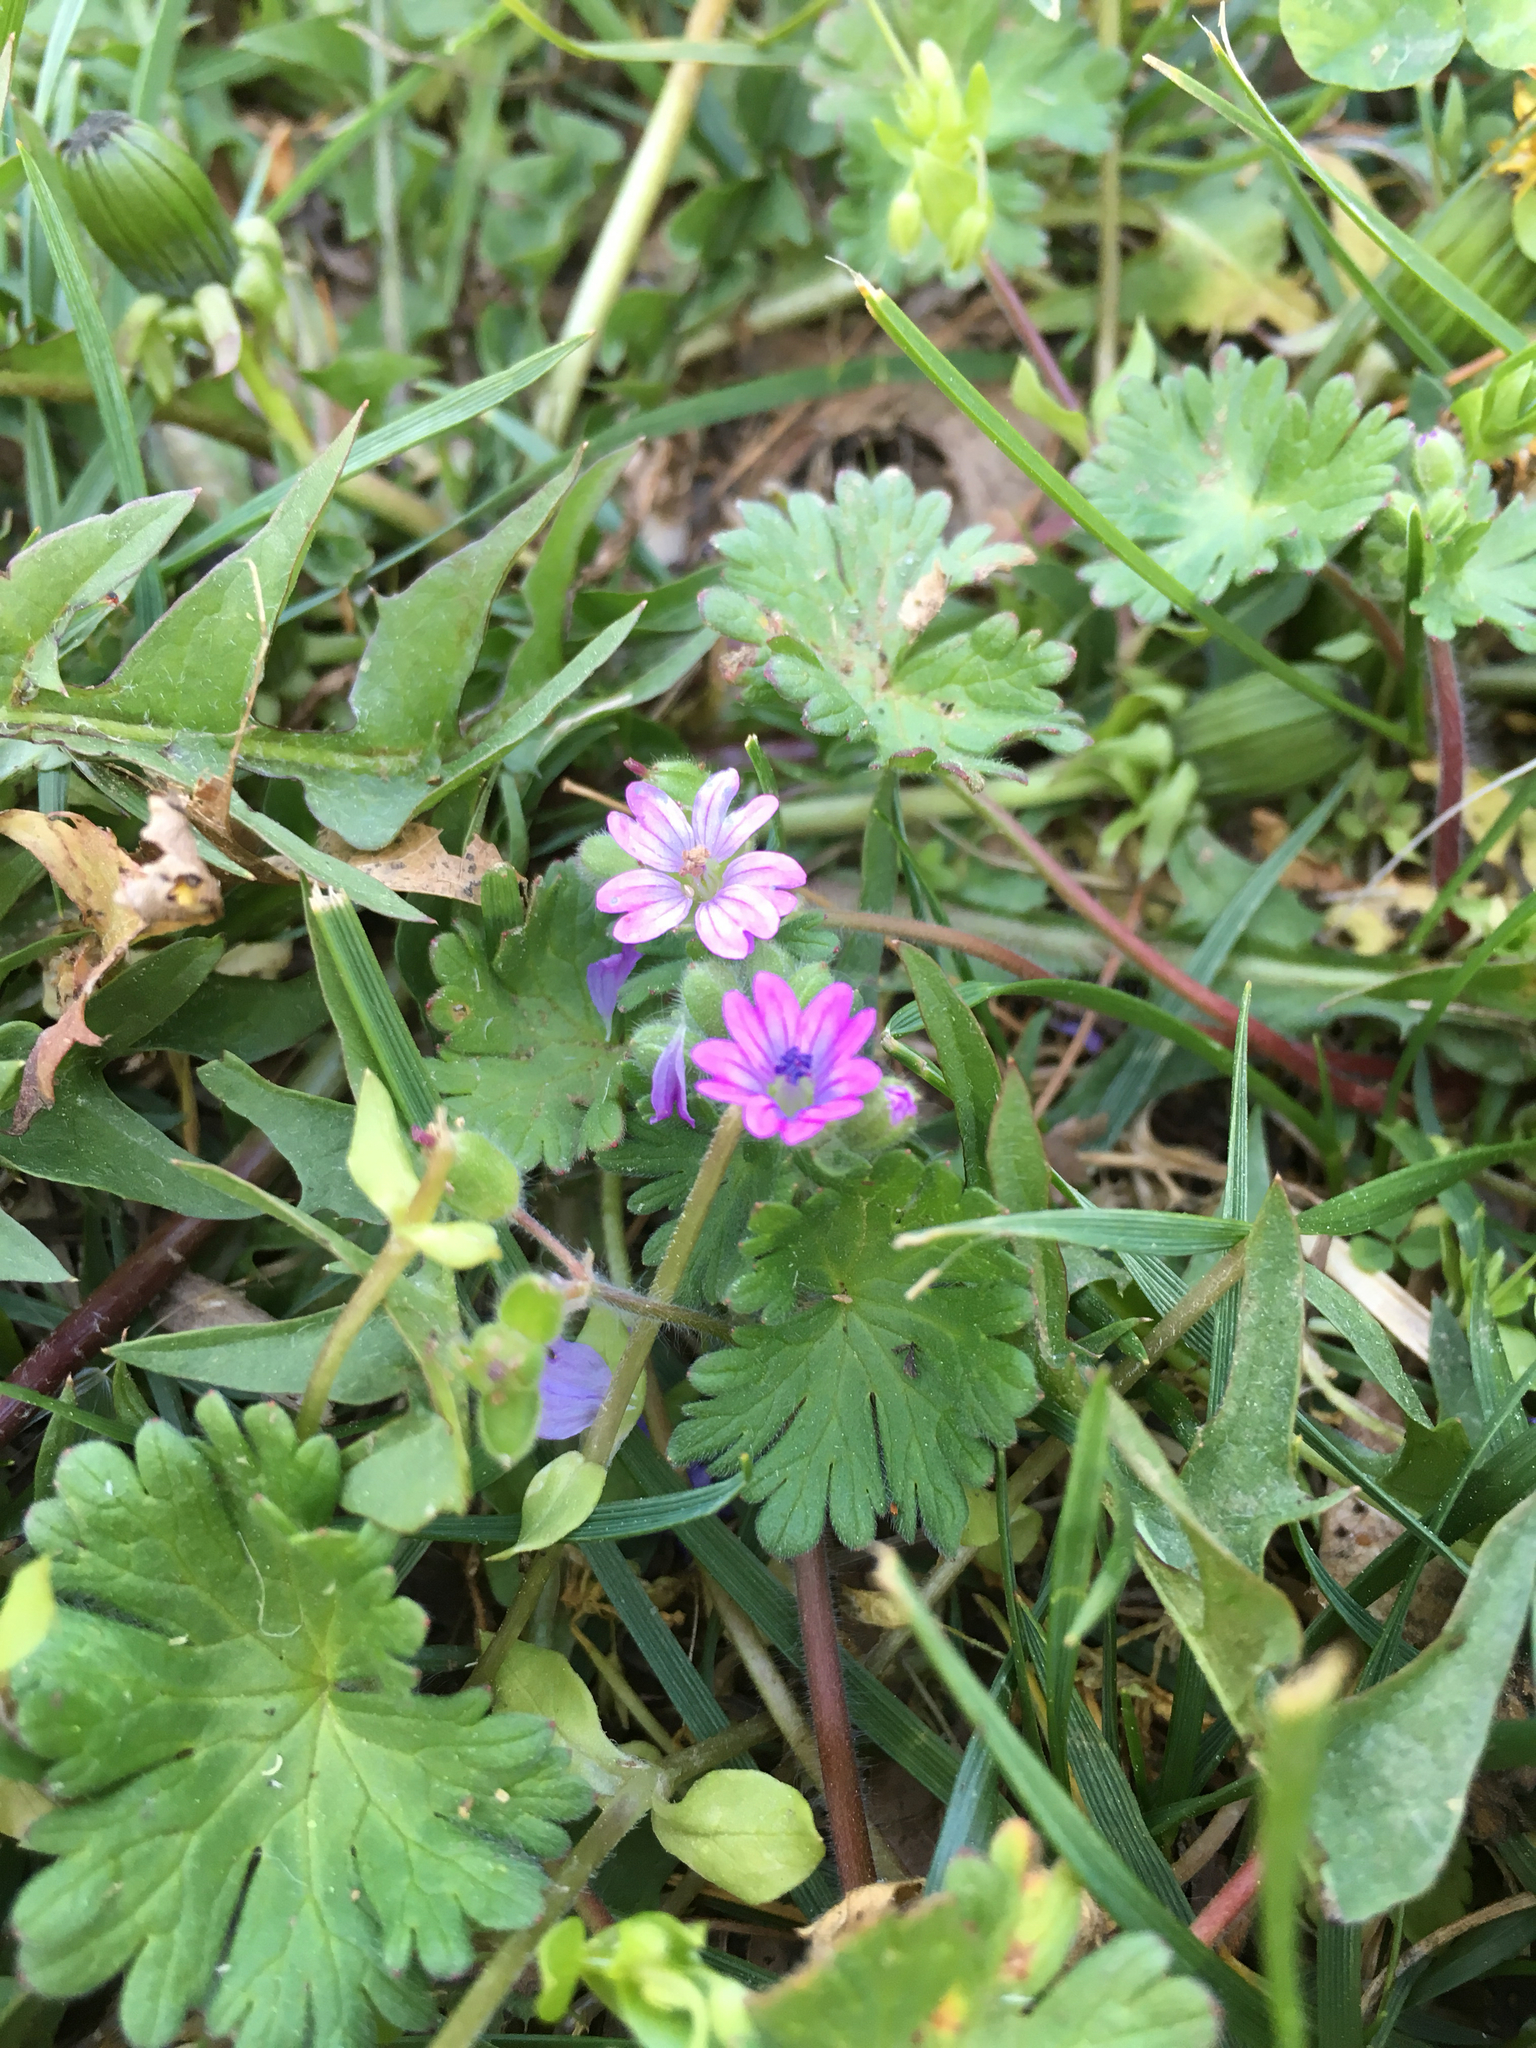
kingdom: Plantae
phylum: Tracheophyta
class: Magnoliopsida
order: Geraniales
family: Geraniaceae
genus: Geranium
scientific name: Geranium molle
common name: Dove's-foot crane's-bill
